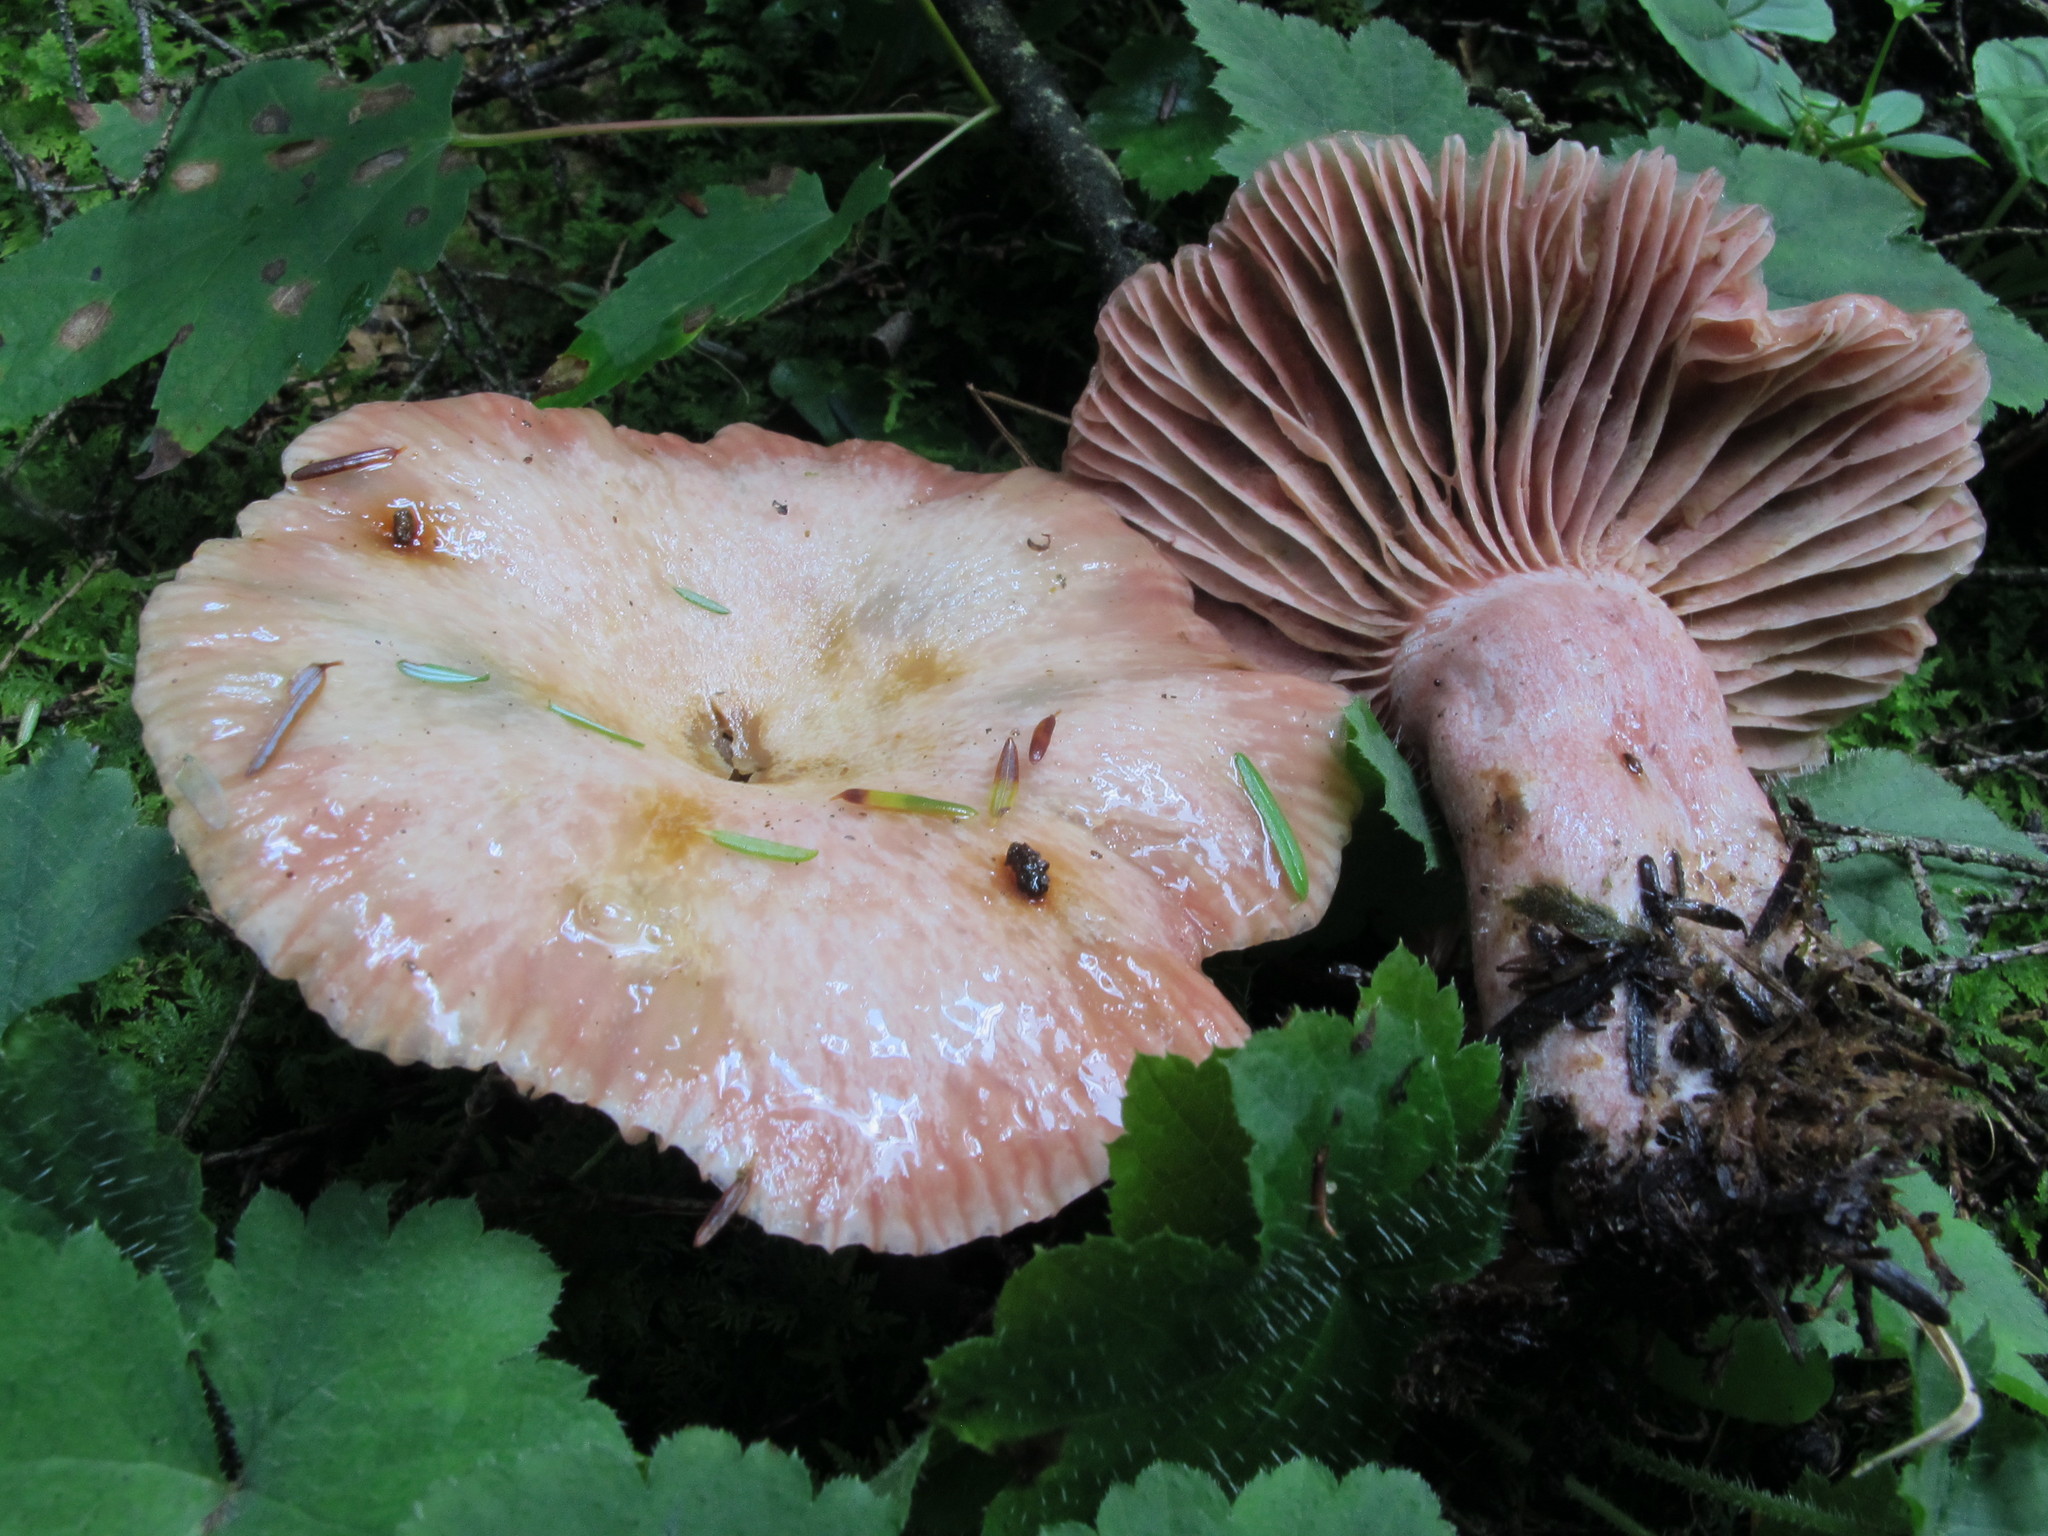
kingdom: Fungi
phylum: Basidiomycota
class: Agaricomycetes
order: Russulales
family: Russulaceae
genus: Lactarius
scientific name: Lactarius subpurpureus
